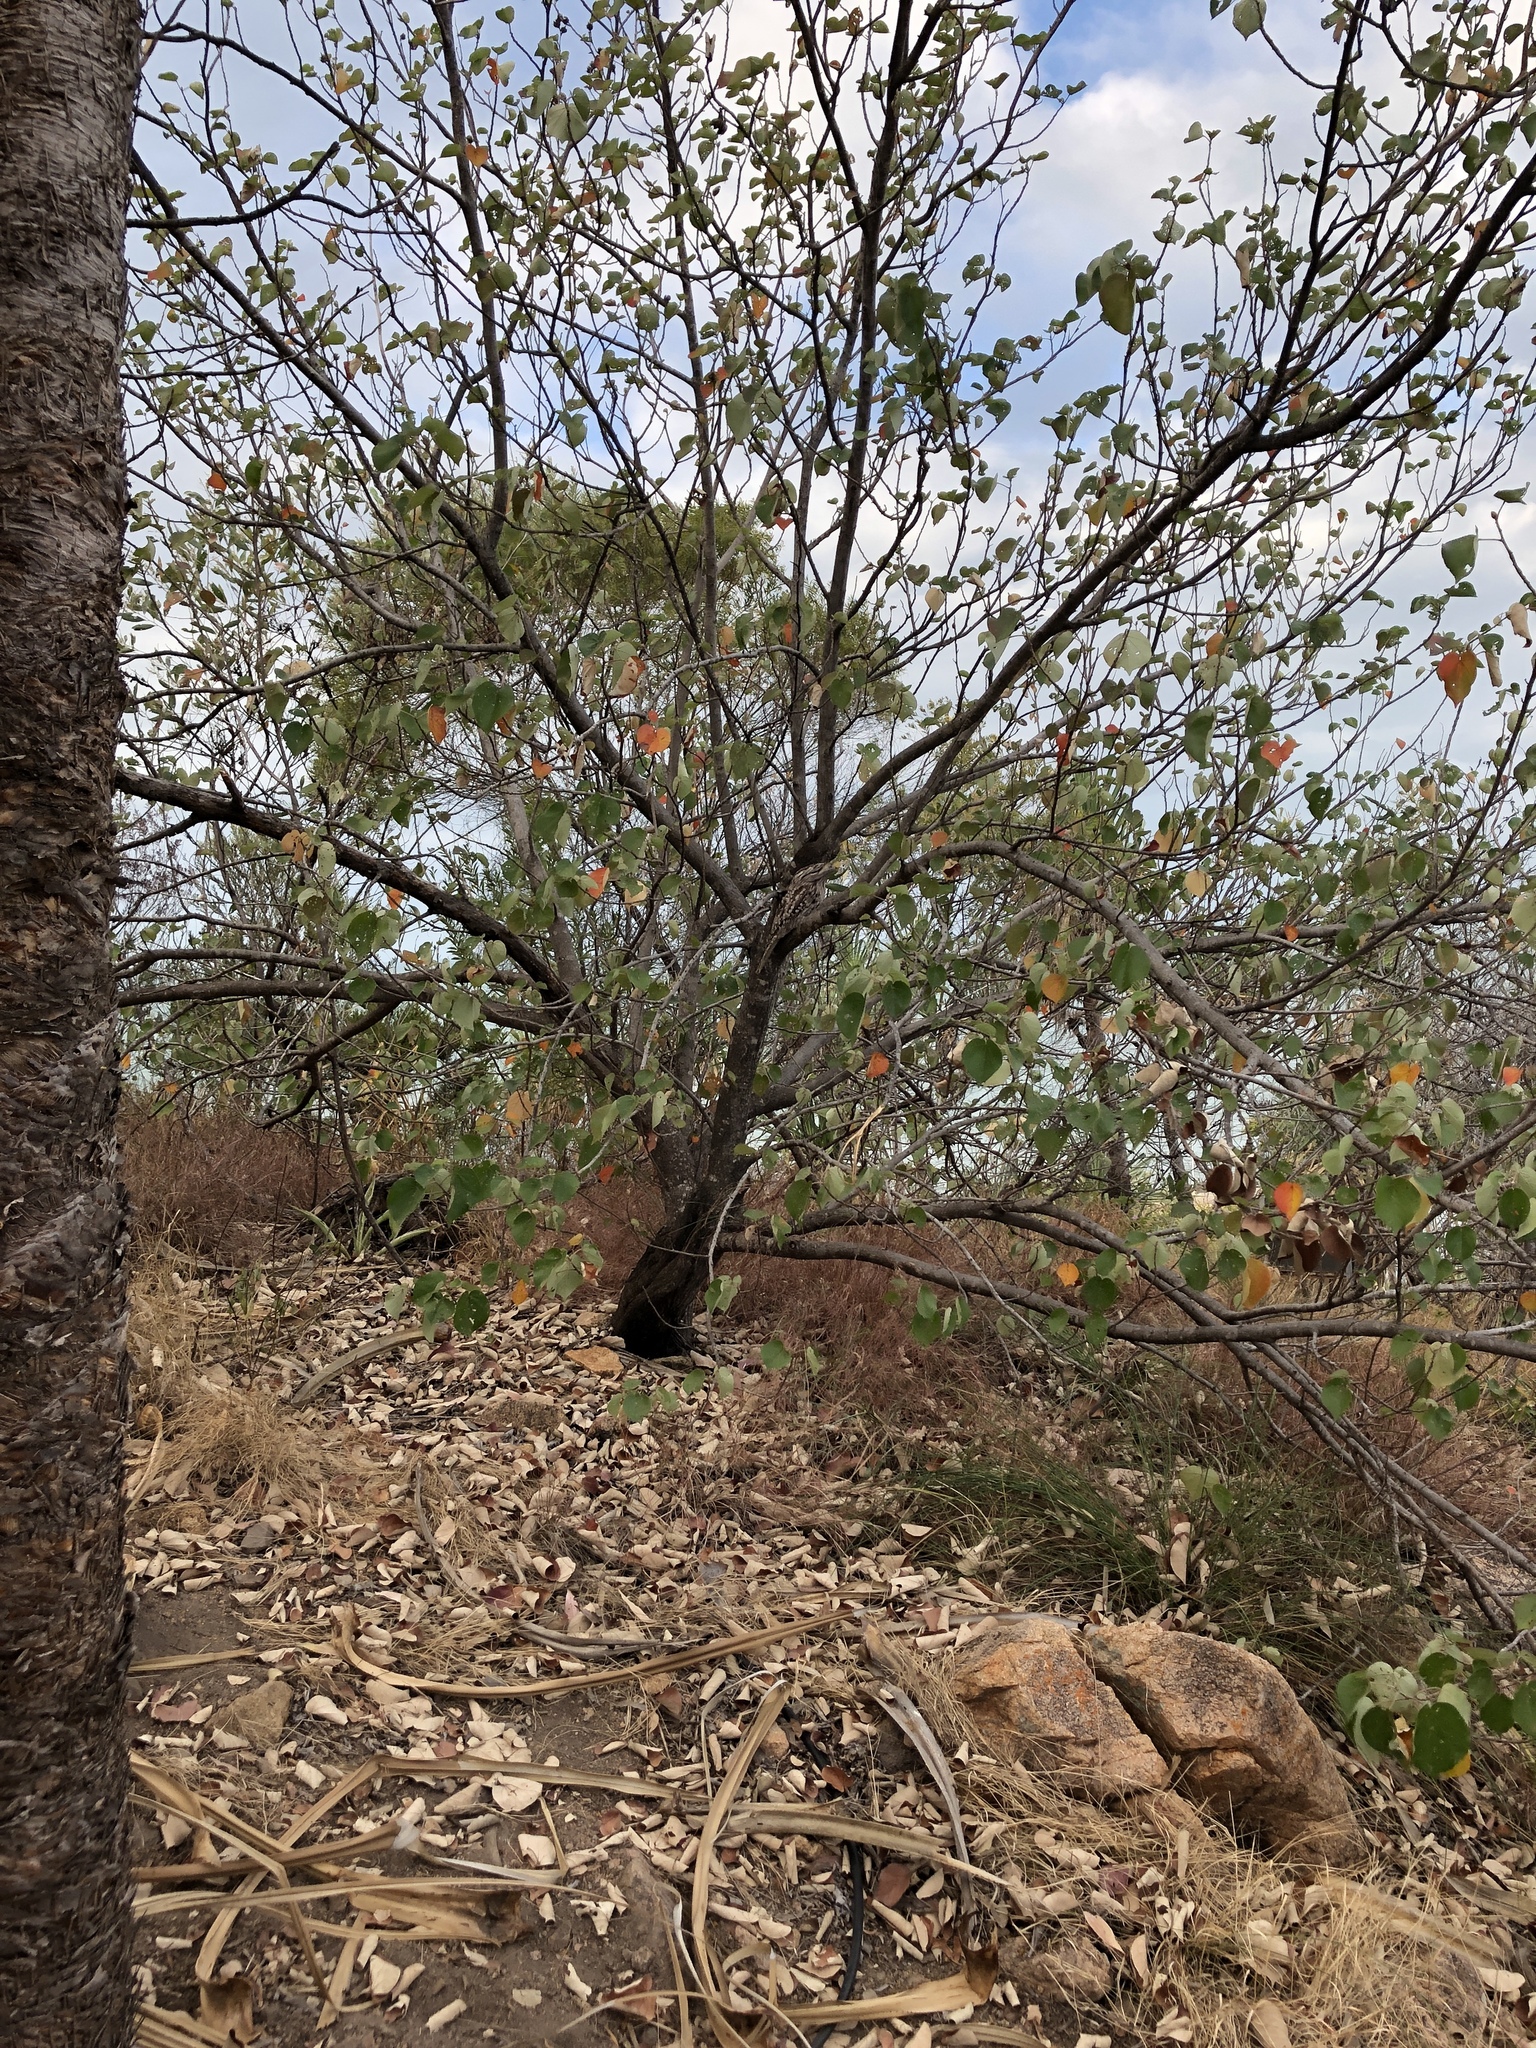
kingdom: Animalia
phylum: Chordata
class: Aves
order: Caprimulgiformes
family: Podargidae
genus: Podargus
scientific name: Podargus strigoides
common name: Tawny frogmouth
